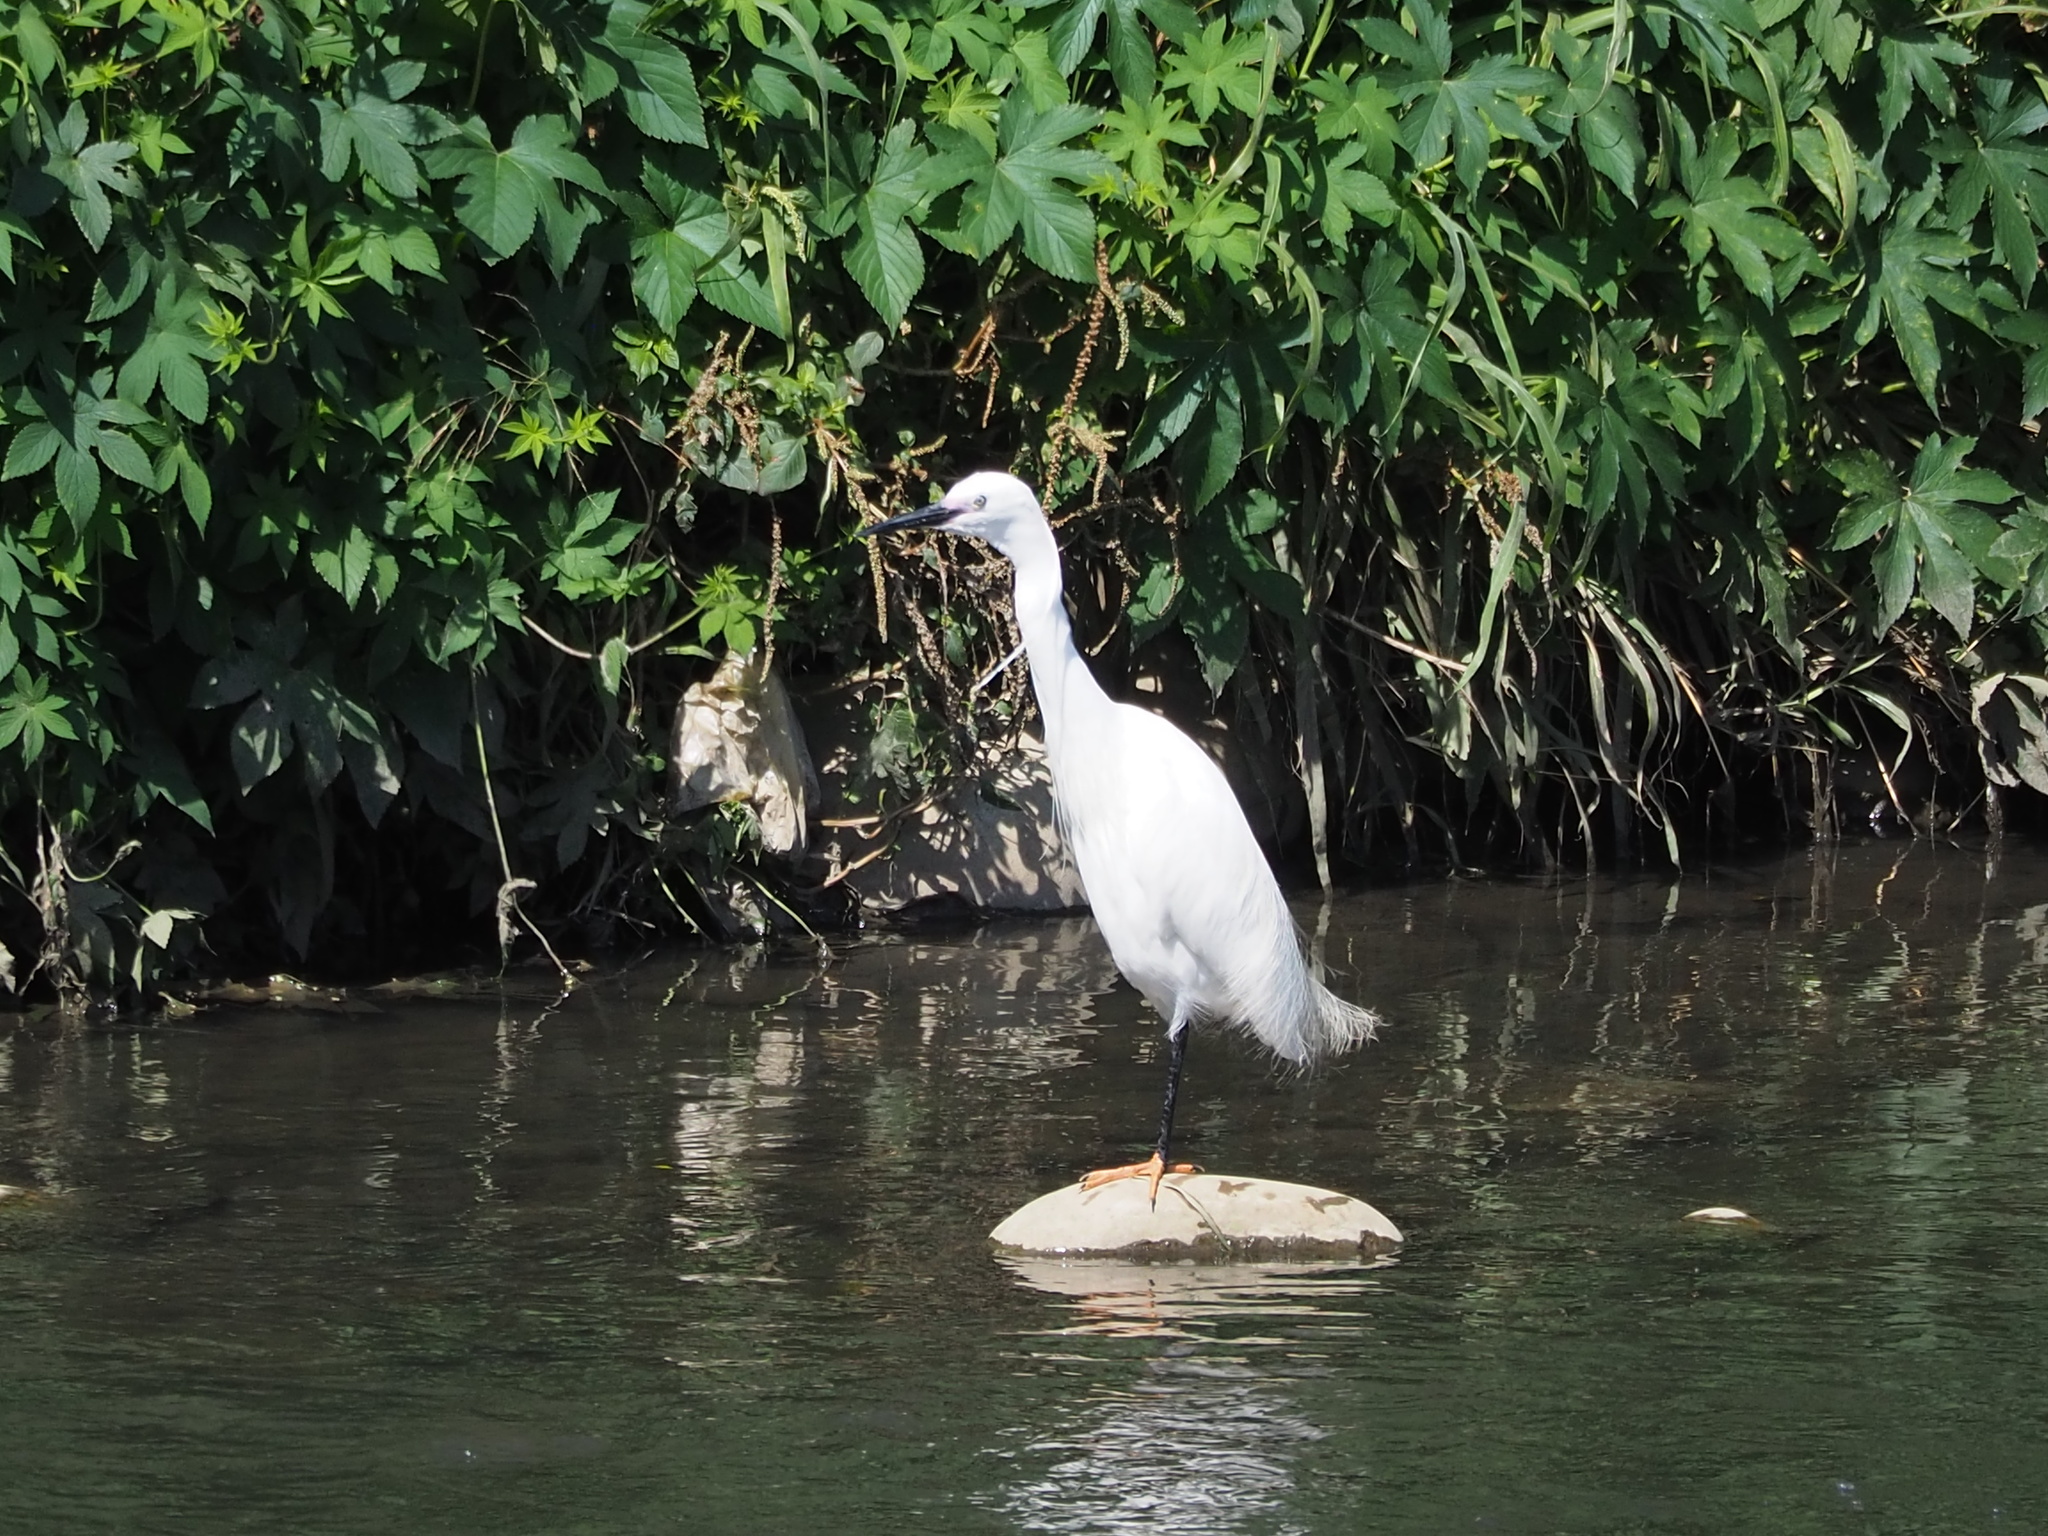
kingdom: Animalia
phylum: Chordata
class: Aves
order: Pelecaniformes
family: Ardeidae
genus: Egretta
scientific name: Egretta garzetta
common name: Little egret
